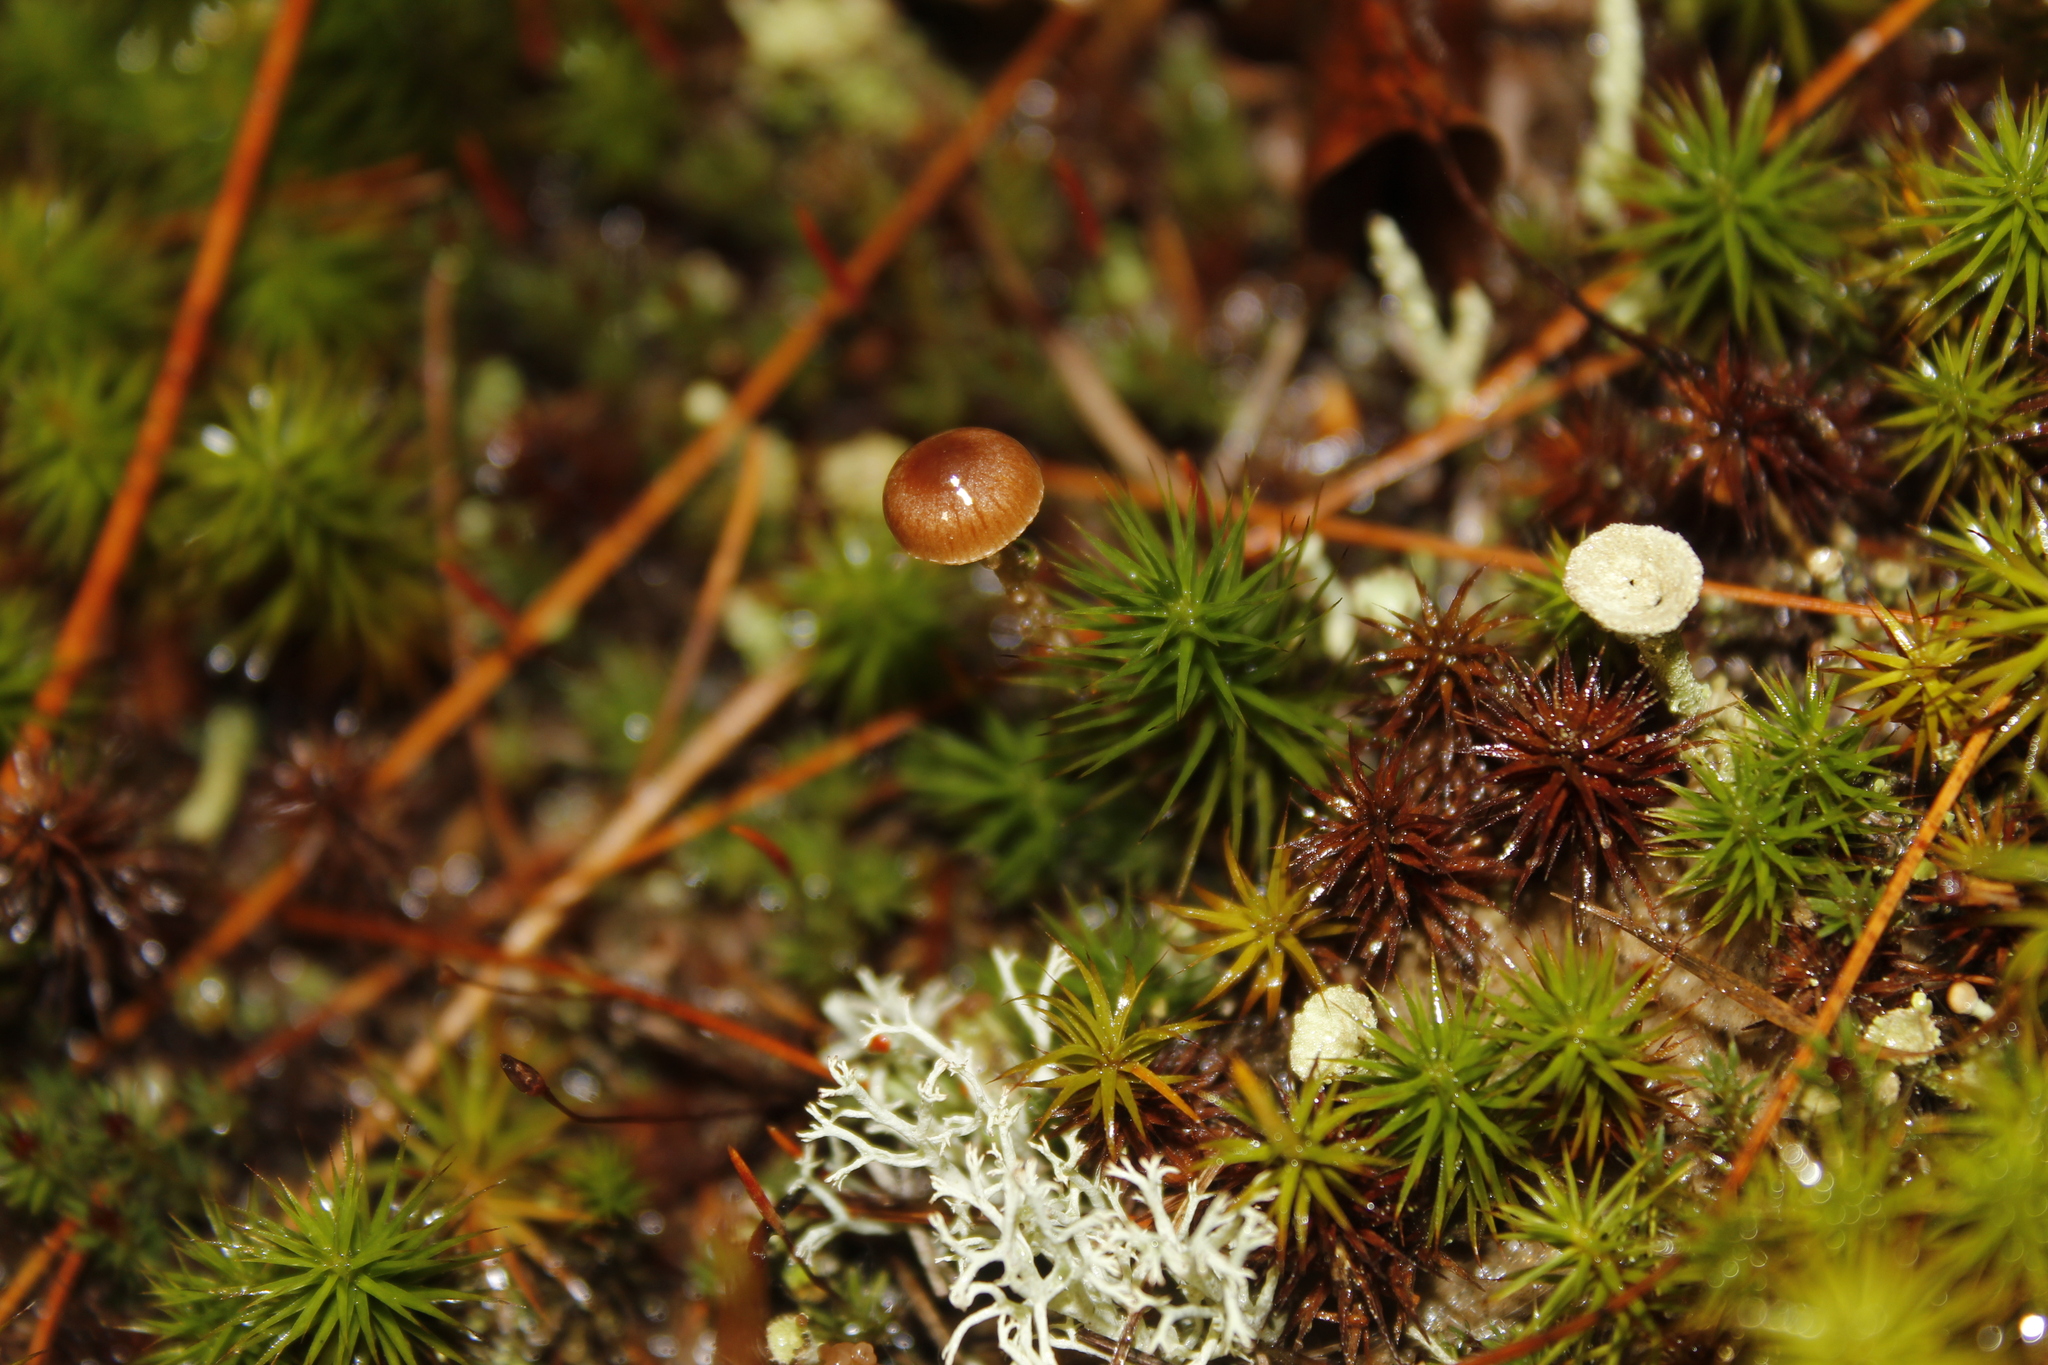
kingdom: Fungi
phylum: Basidiomycota
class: Agaricomycetes
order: Agaricales
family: Strophariaceae
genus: Deconica
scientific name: Deconica montana
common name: Mountain moss deconica
